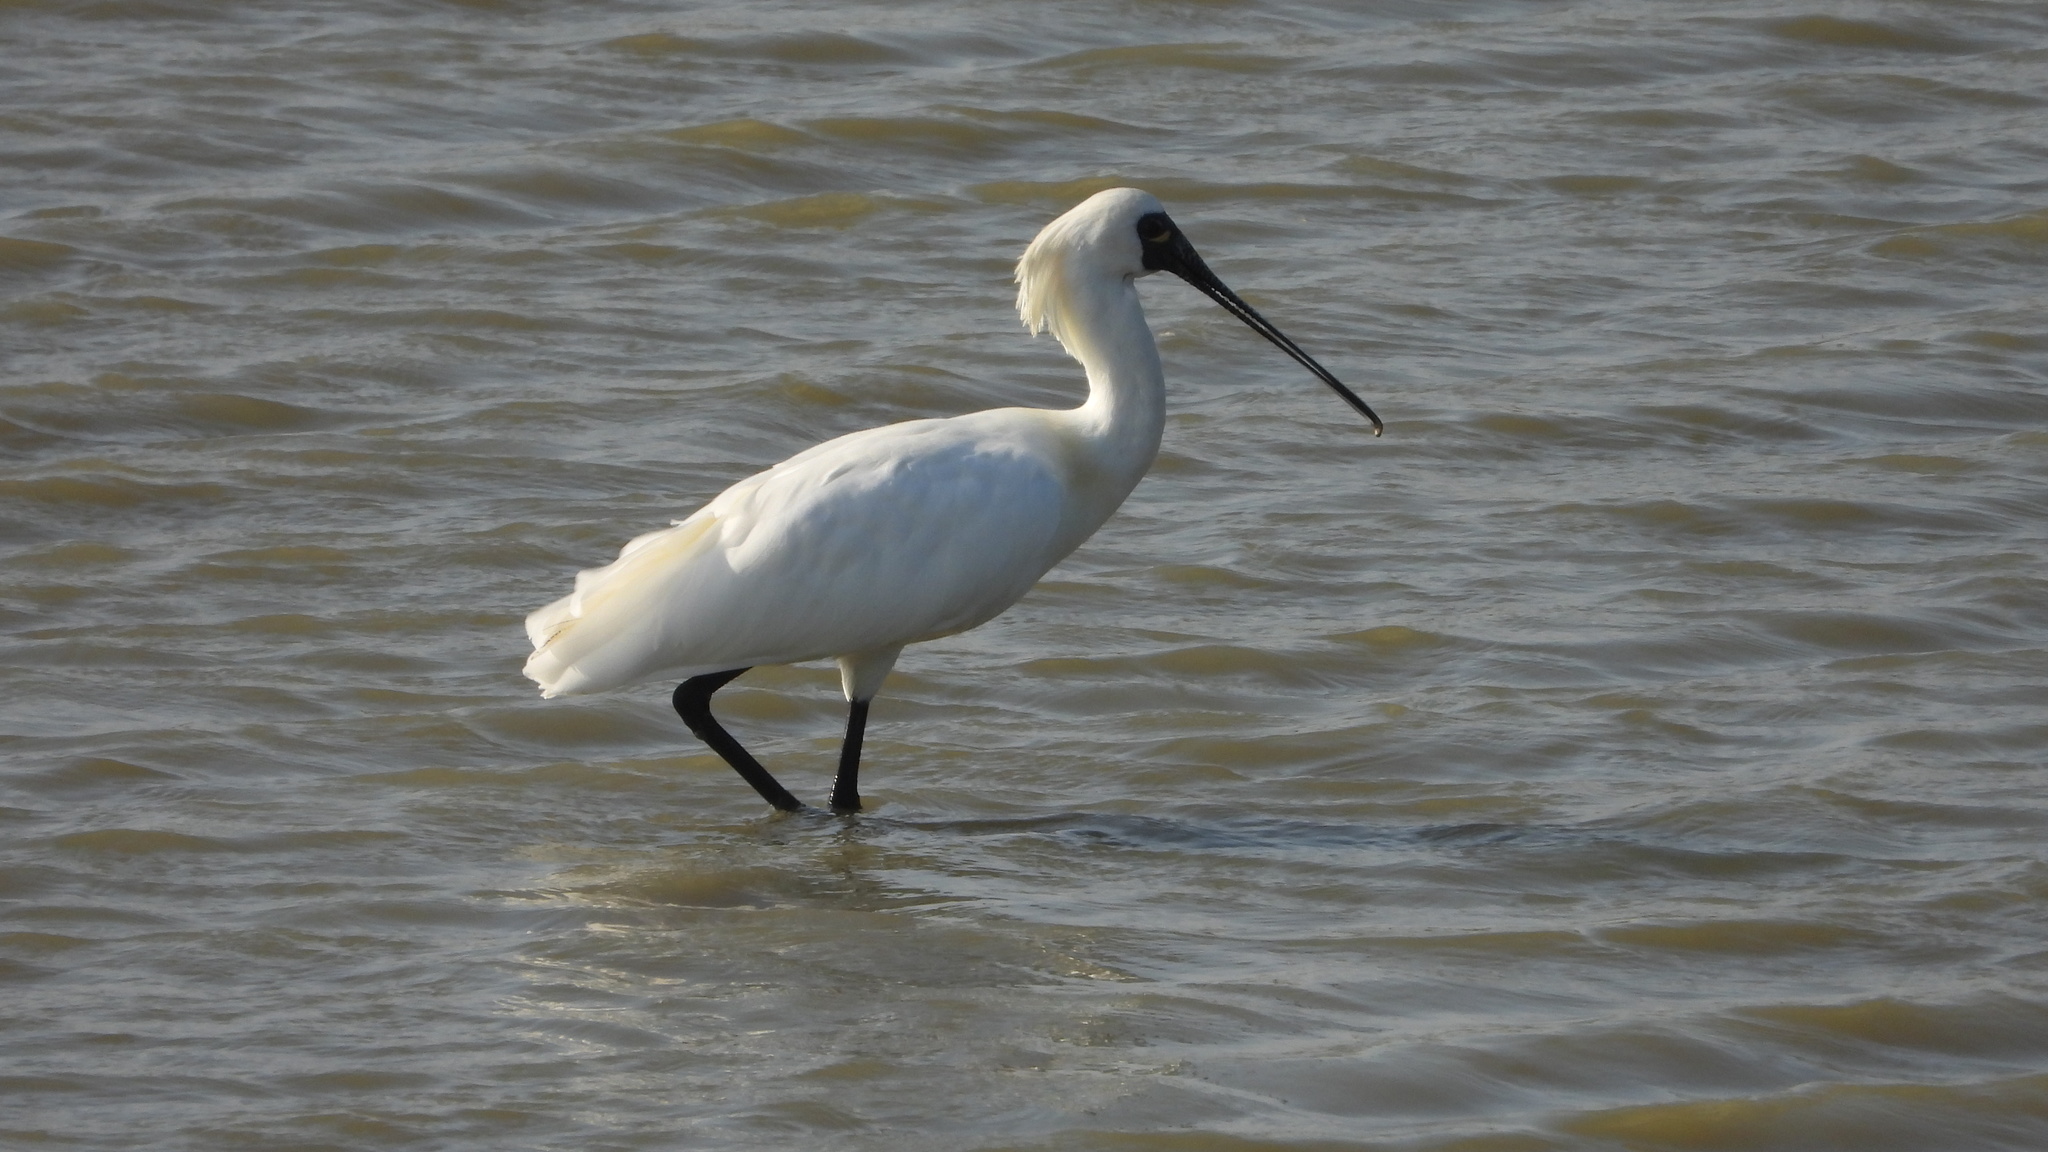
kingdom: Animalia
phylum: Chordata
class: Aves
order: Pelecaniformes
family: Threskiornithidae
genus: Platalea
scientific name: Platalea minor
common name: Black-faced spoonbill
